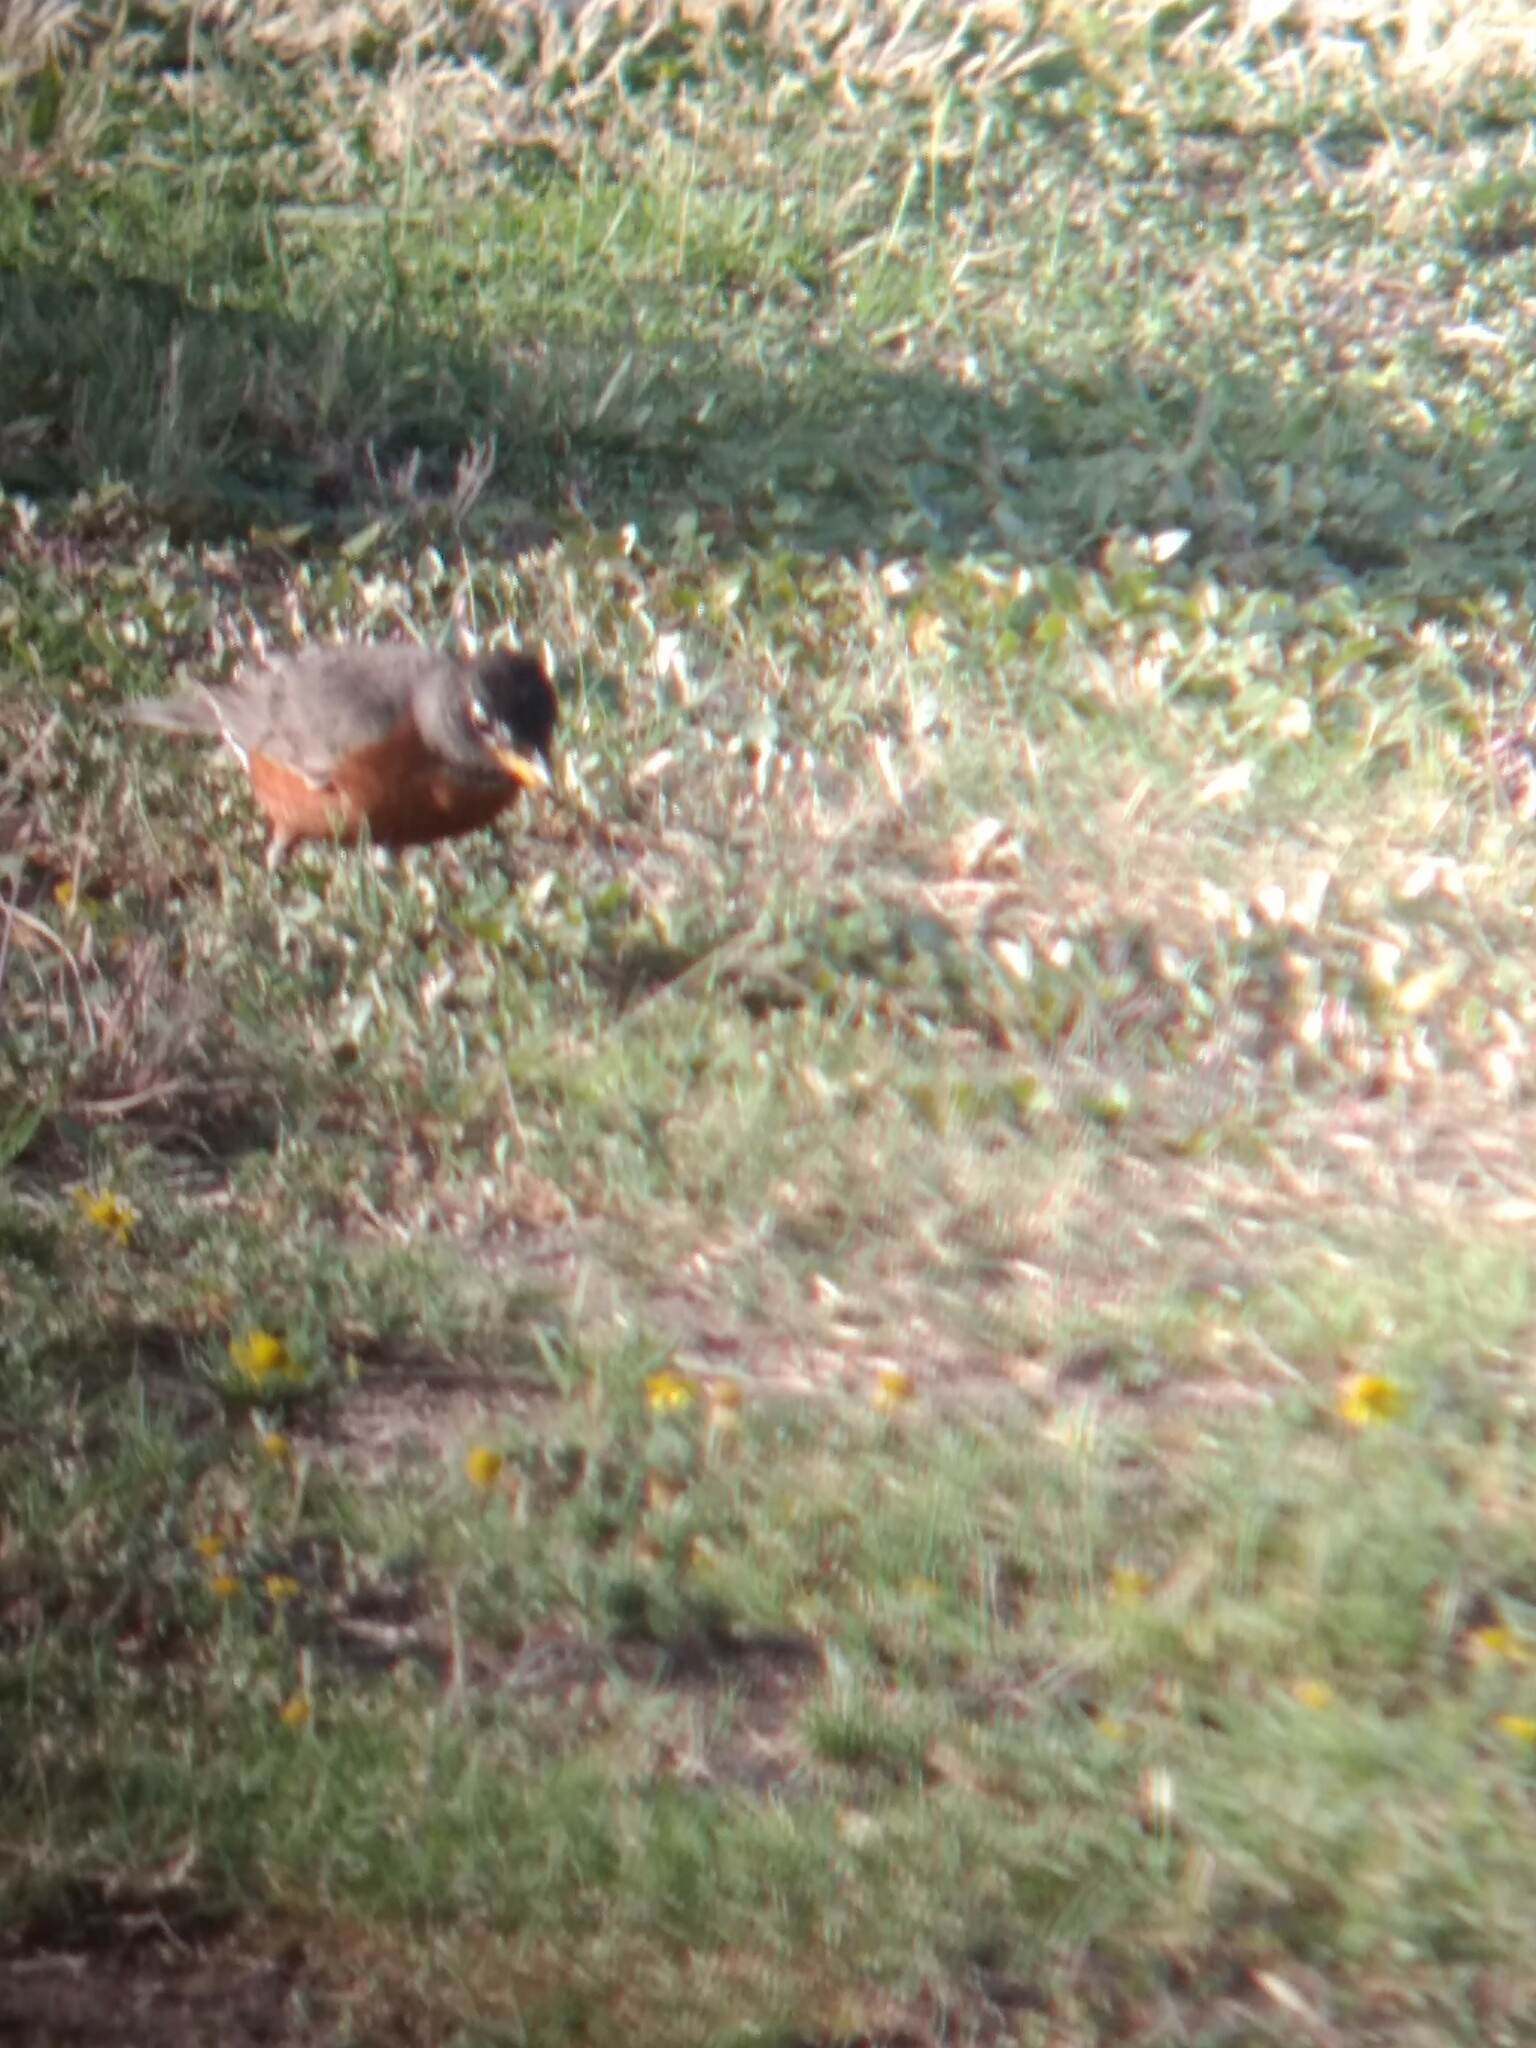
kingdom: Animalia
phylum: Chordata
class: Aves
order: Passeriformes
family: Turdidae
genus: Turdus
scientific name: Turdus migratorius
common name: American robin
